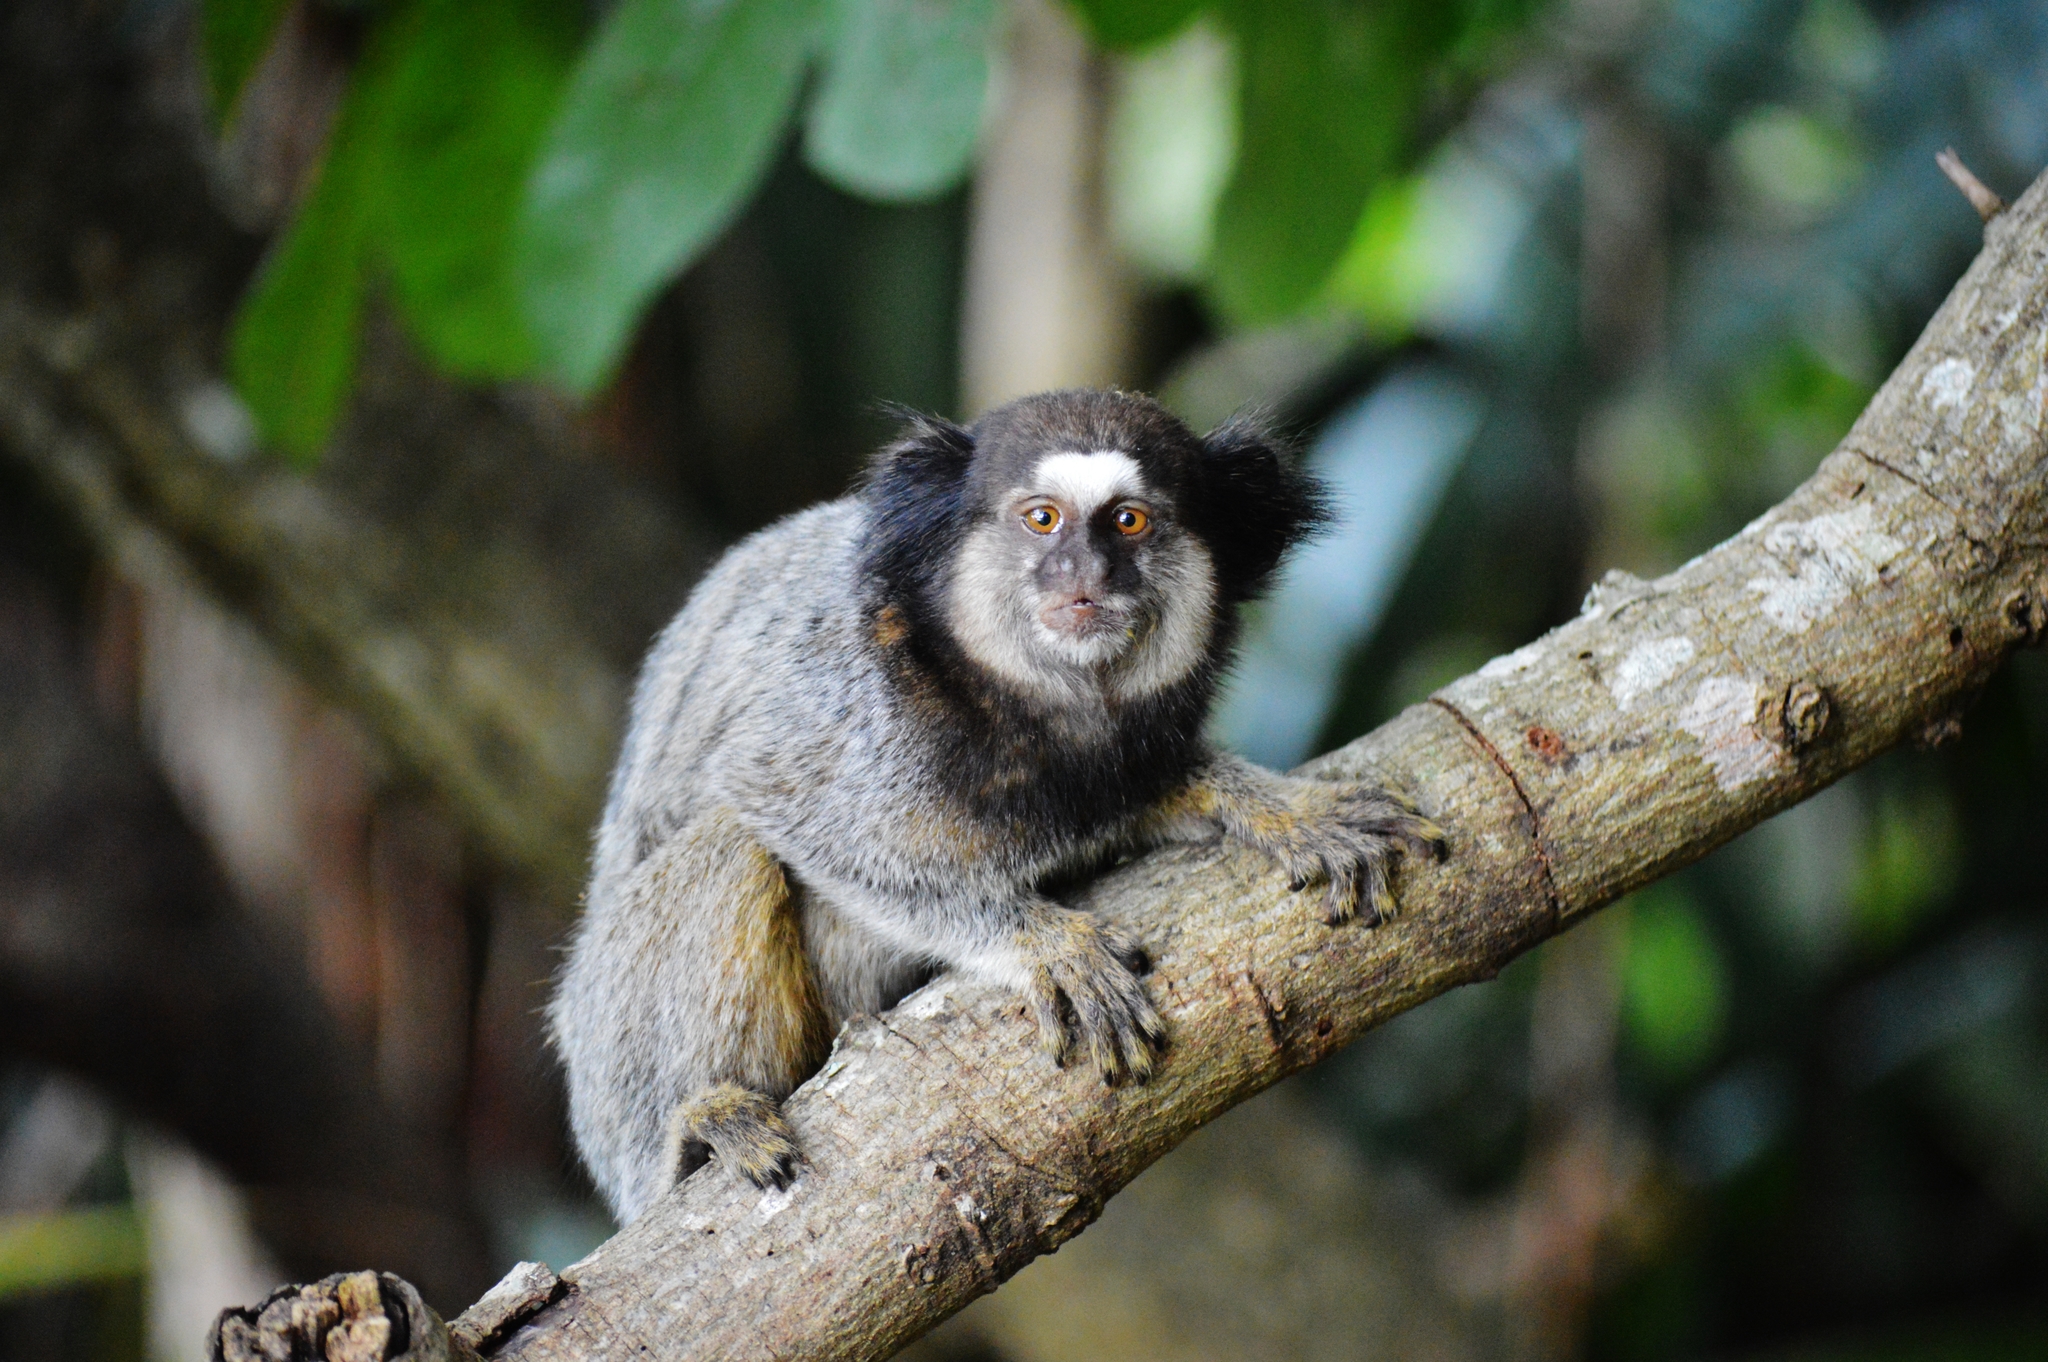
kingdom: Animalia
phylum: Chordata
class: Mammalia
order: Primates
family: Callitrichidae
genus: Callithrix
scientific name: Callithrix penicillata
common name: Black-tufted marmoset
